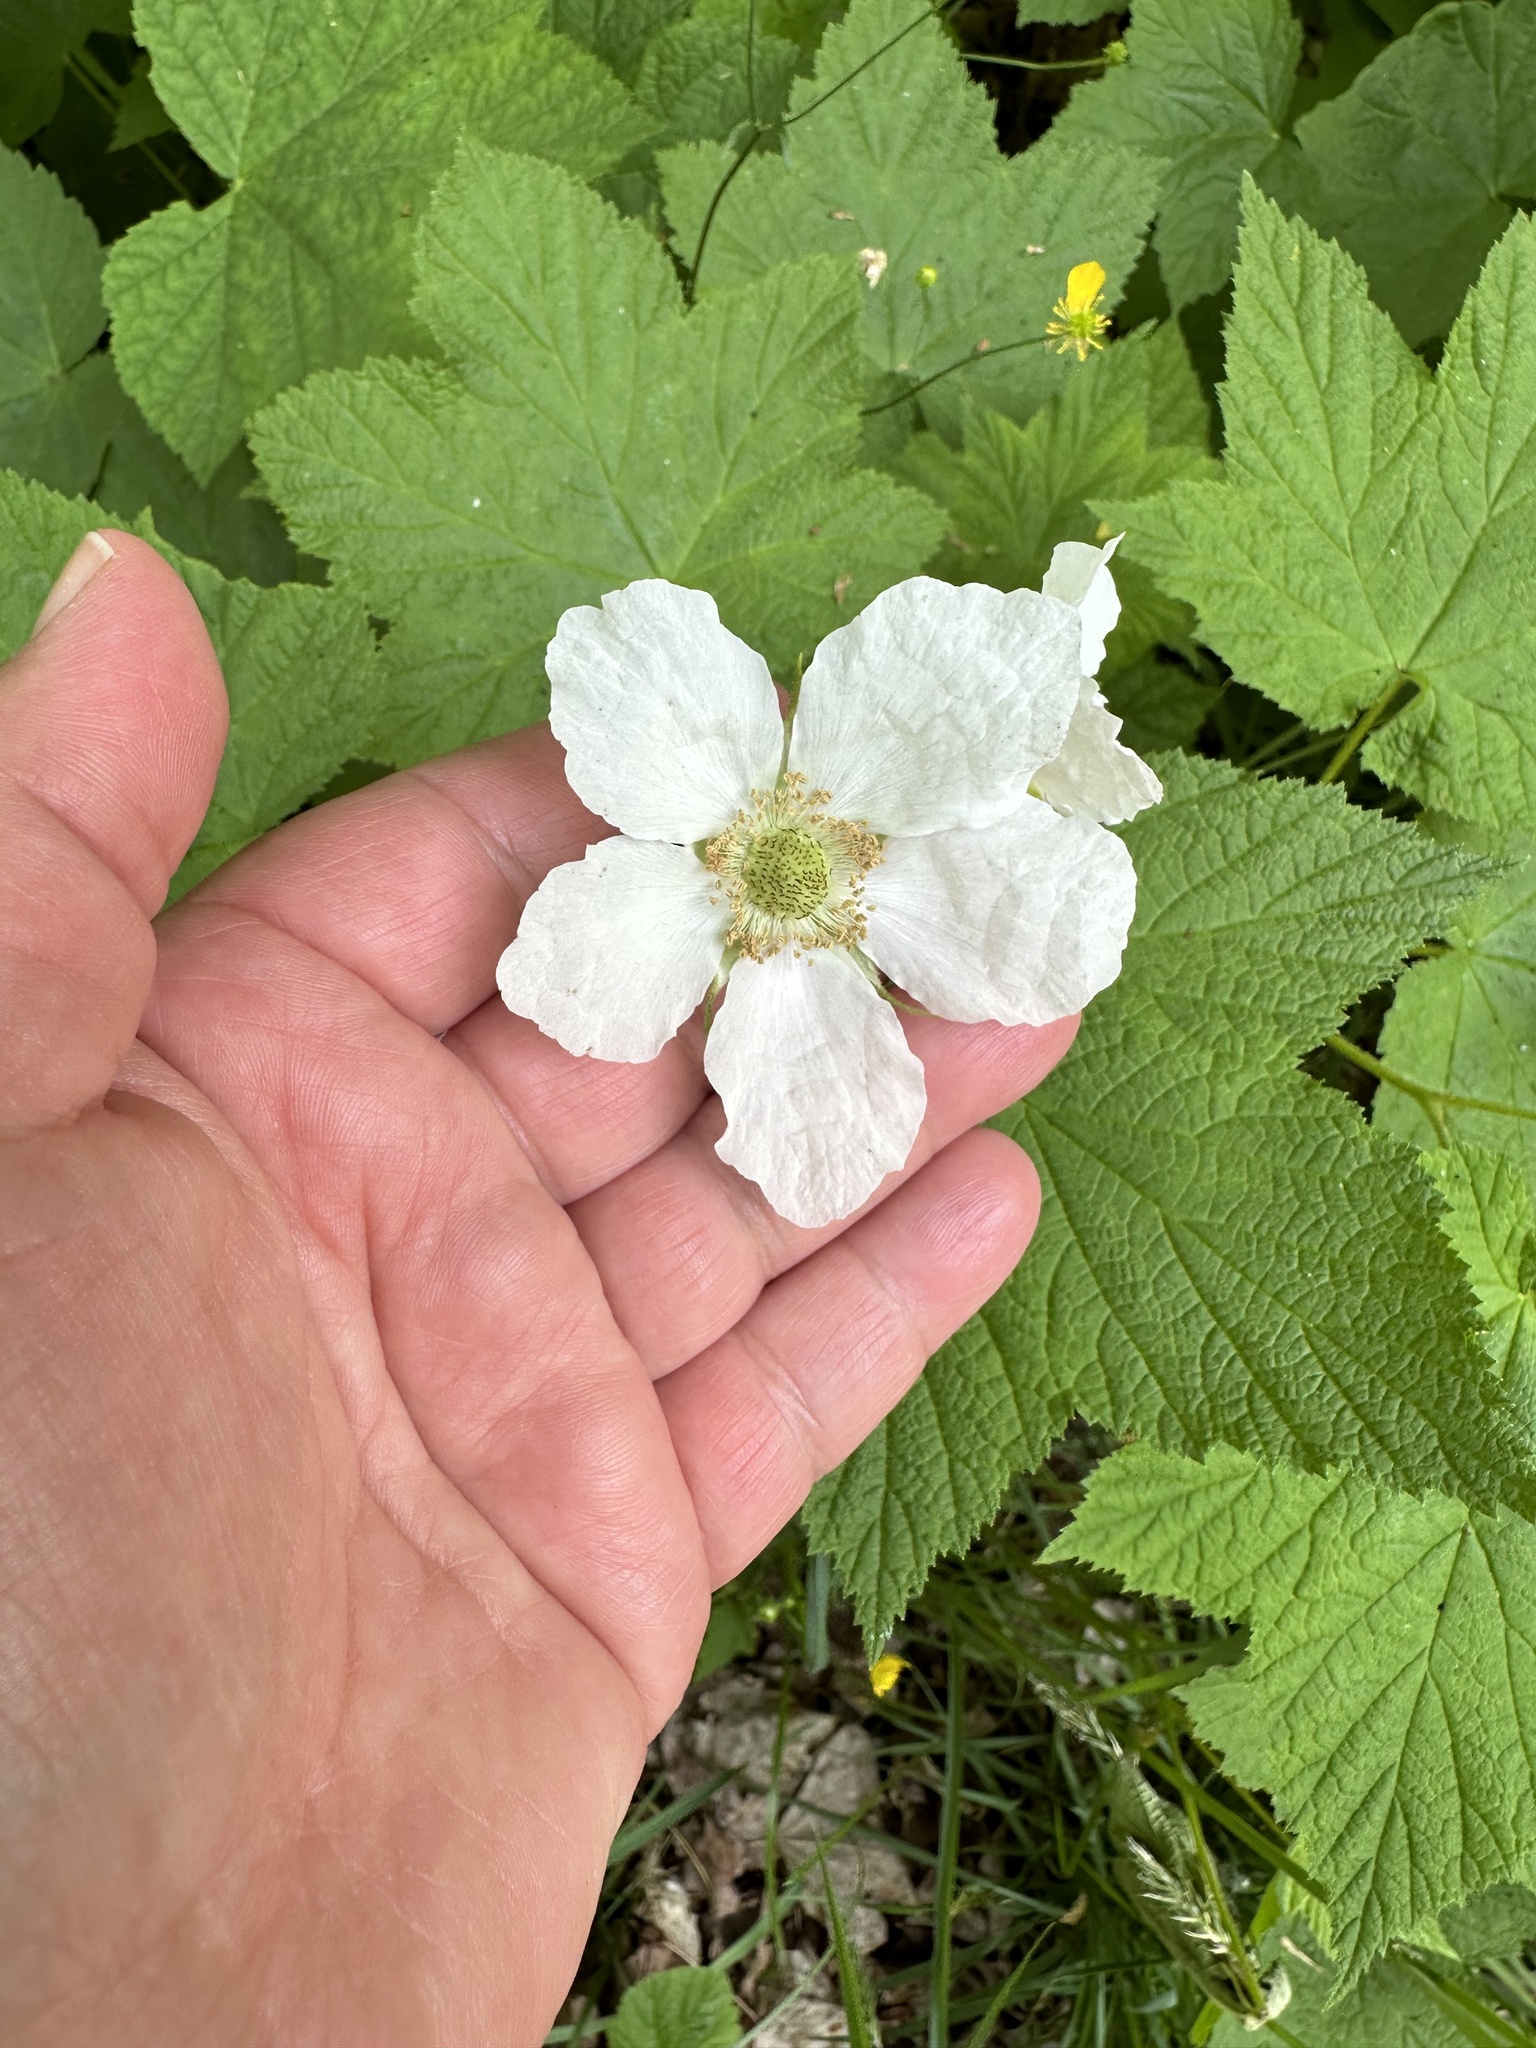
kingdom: Plantae
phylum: Tracheophyta
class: Magnoliopsida
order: Rosales
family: Rosaceae
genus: Rubus
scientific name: Rubus parviflorus
